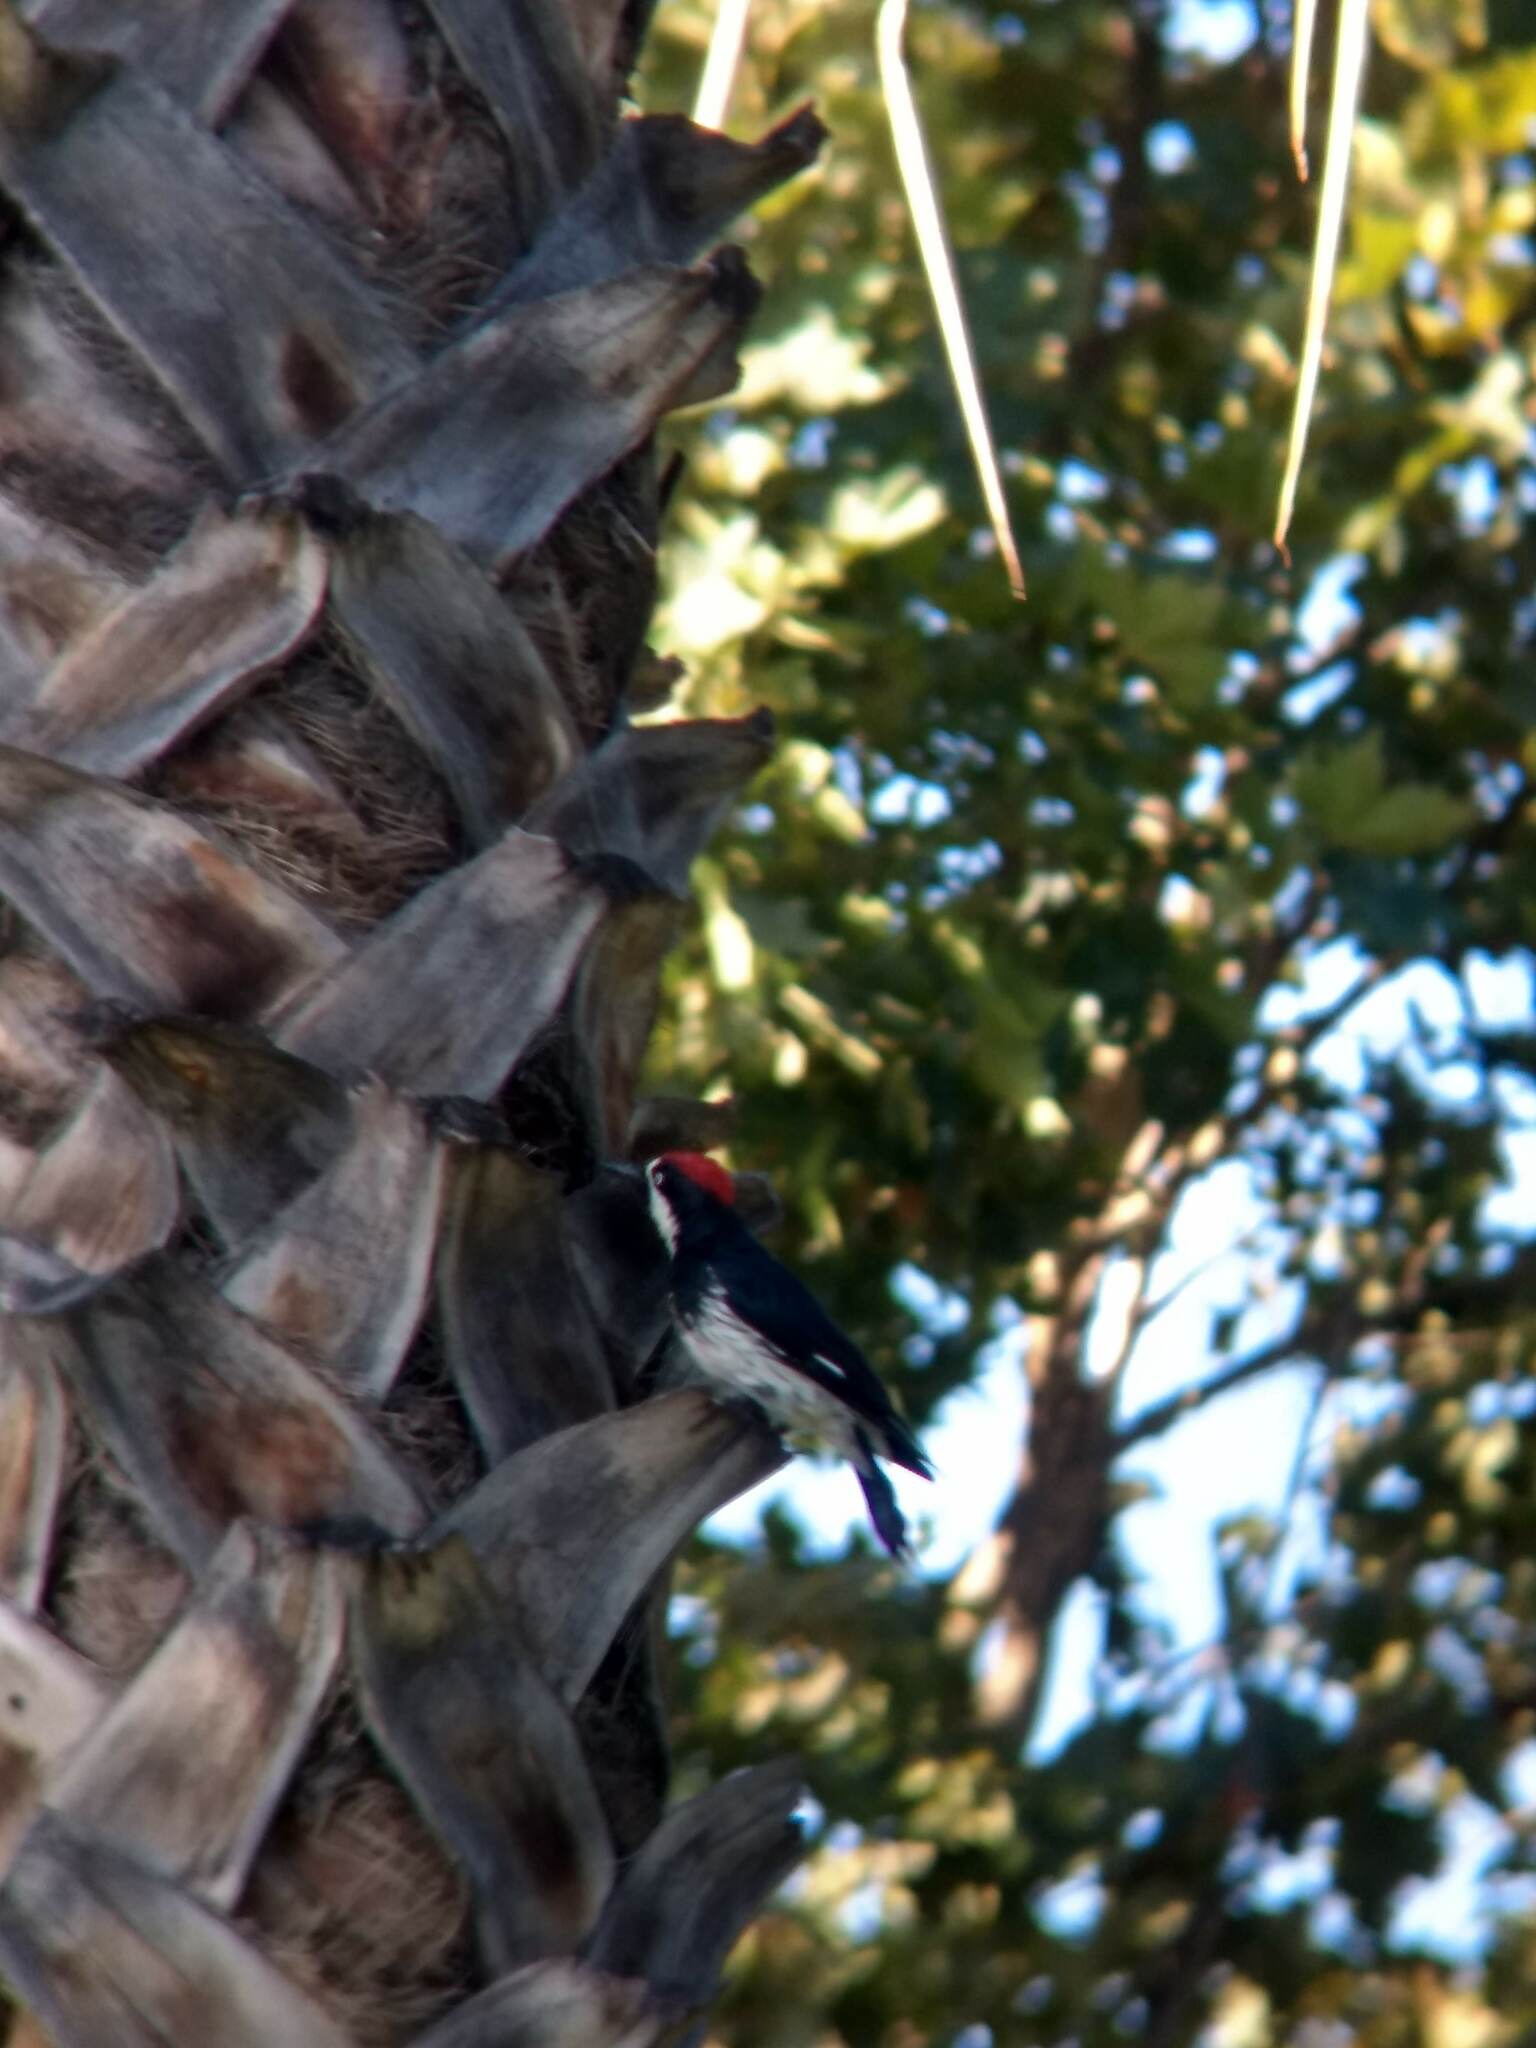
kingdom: Animalia
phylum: Chordata
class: Aves
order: Piciformes
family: Picidae
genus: Melanerpes
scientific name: Melanerpes formicivorus
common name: Acorn woodpecker
